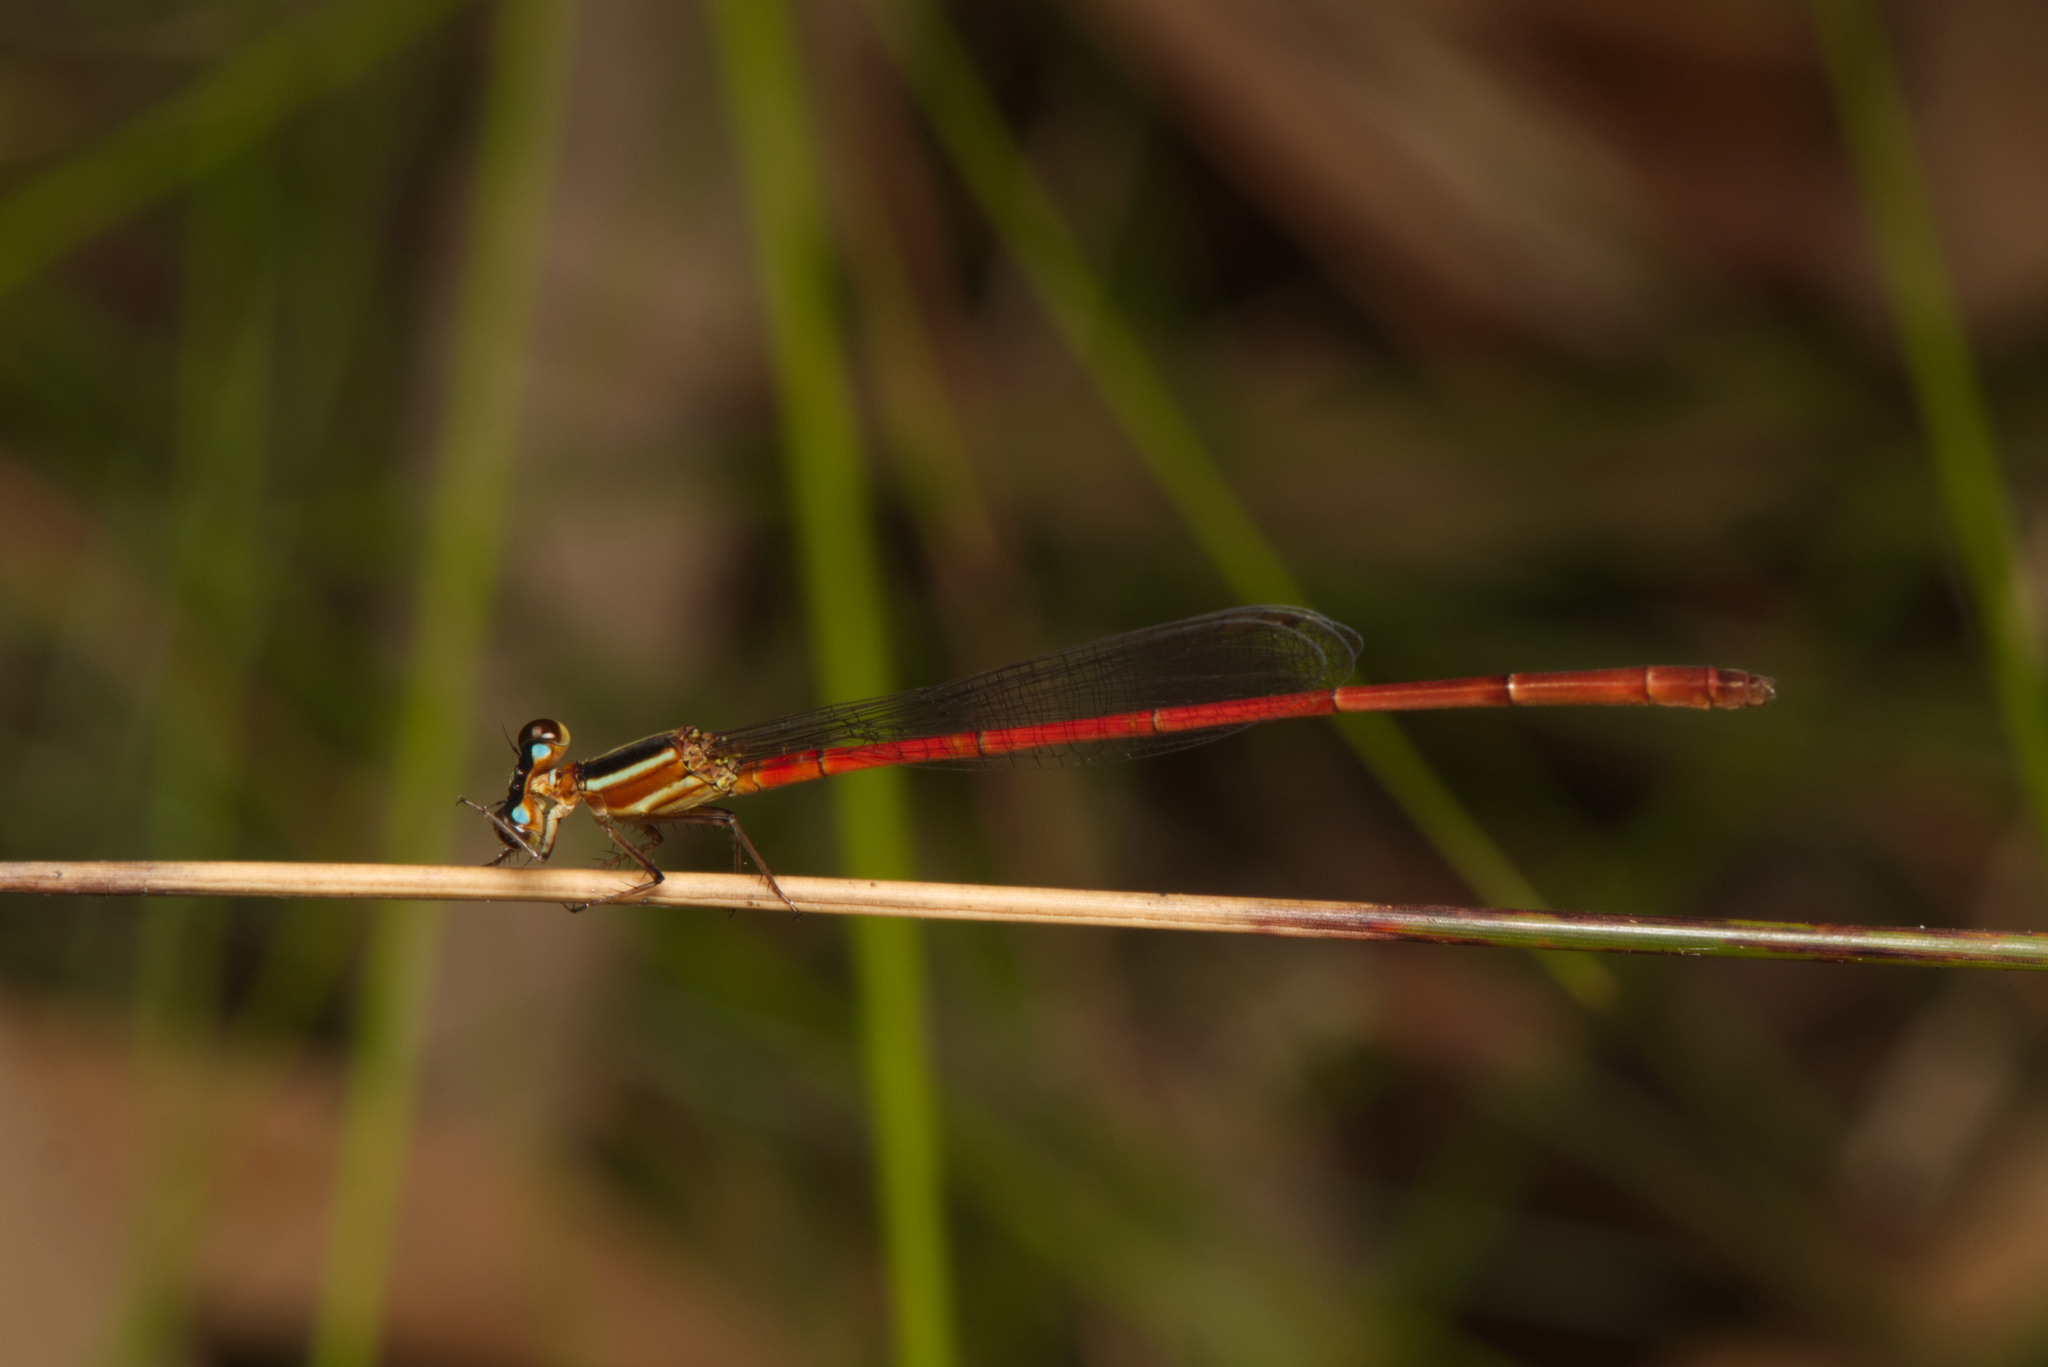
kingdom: Animalia
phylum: Arthropoda
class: Insecta
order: Odonata
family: Coenagrionidae
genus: Argiocnemis
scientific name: Argiocnemis rubescens
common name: Red-tipped shadefly
